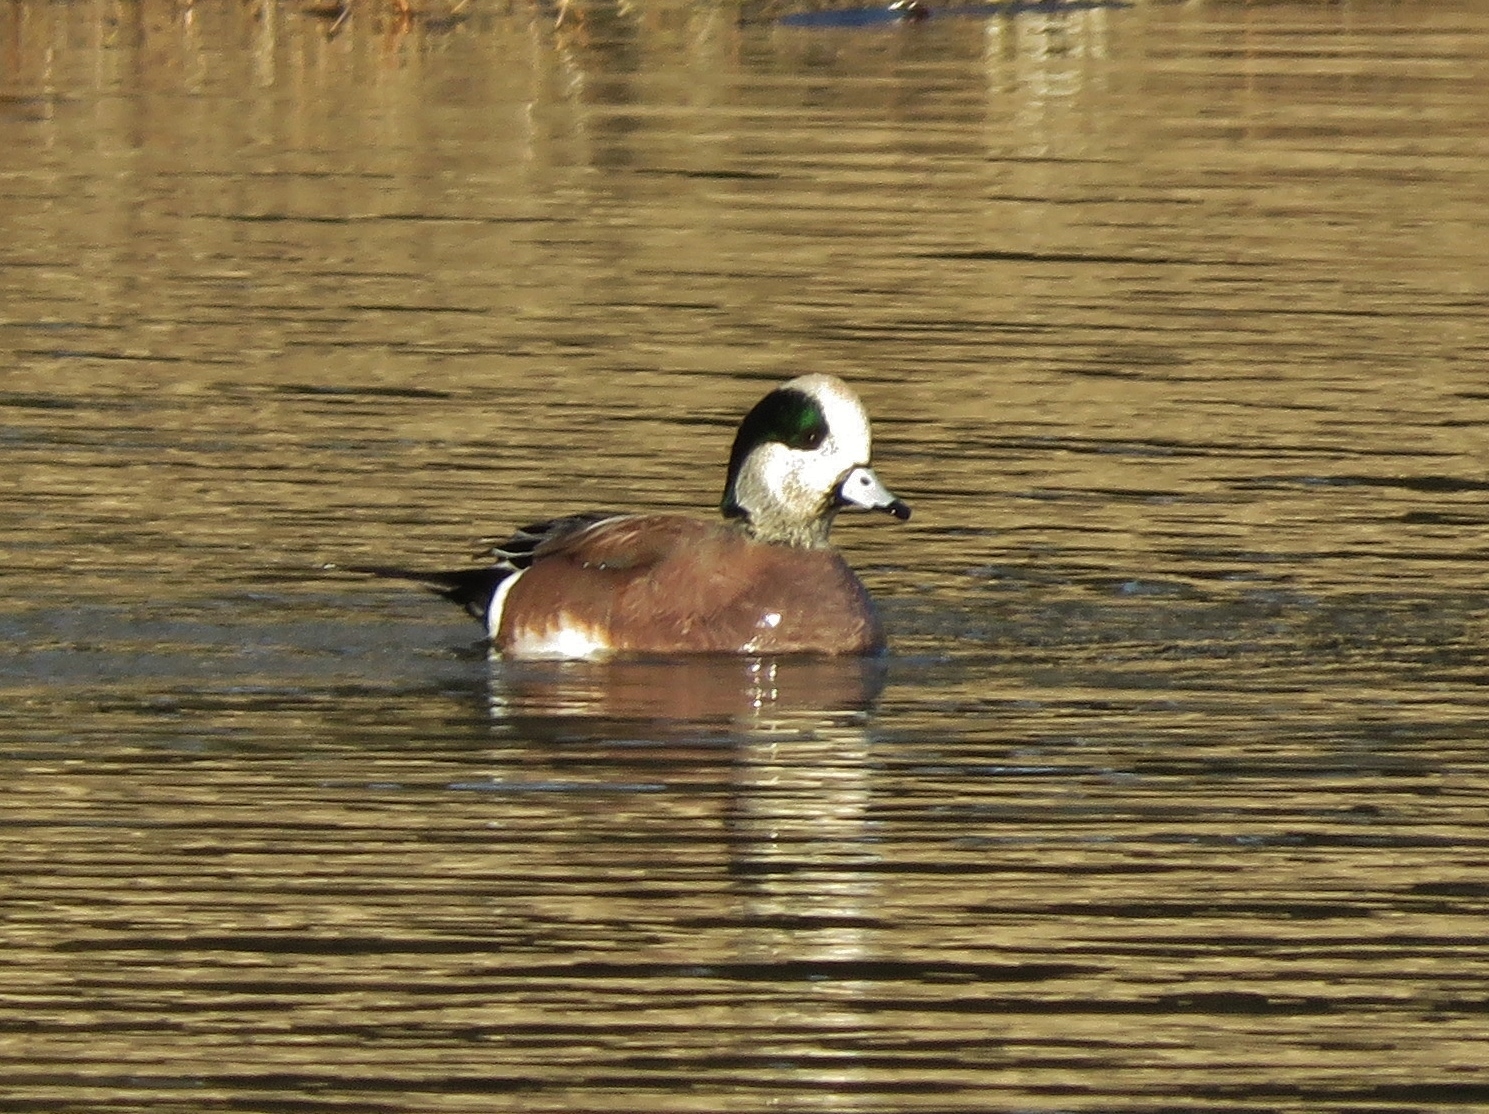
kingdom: Animalia
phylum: Chordata
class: Aves
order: Anseriformes
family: Anatidae
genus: Mareca
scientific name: Mareca americana
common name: American wigeon
